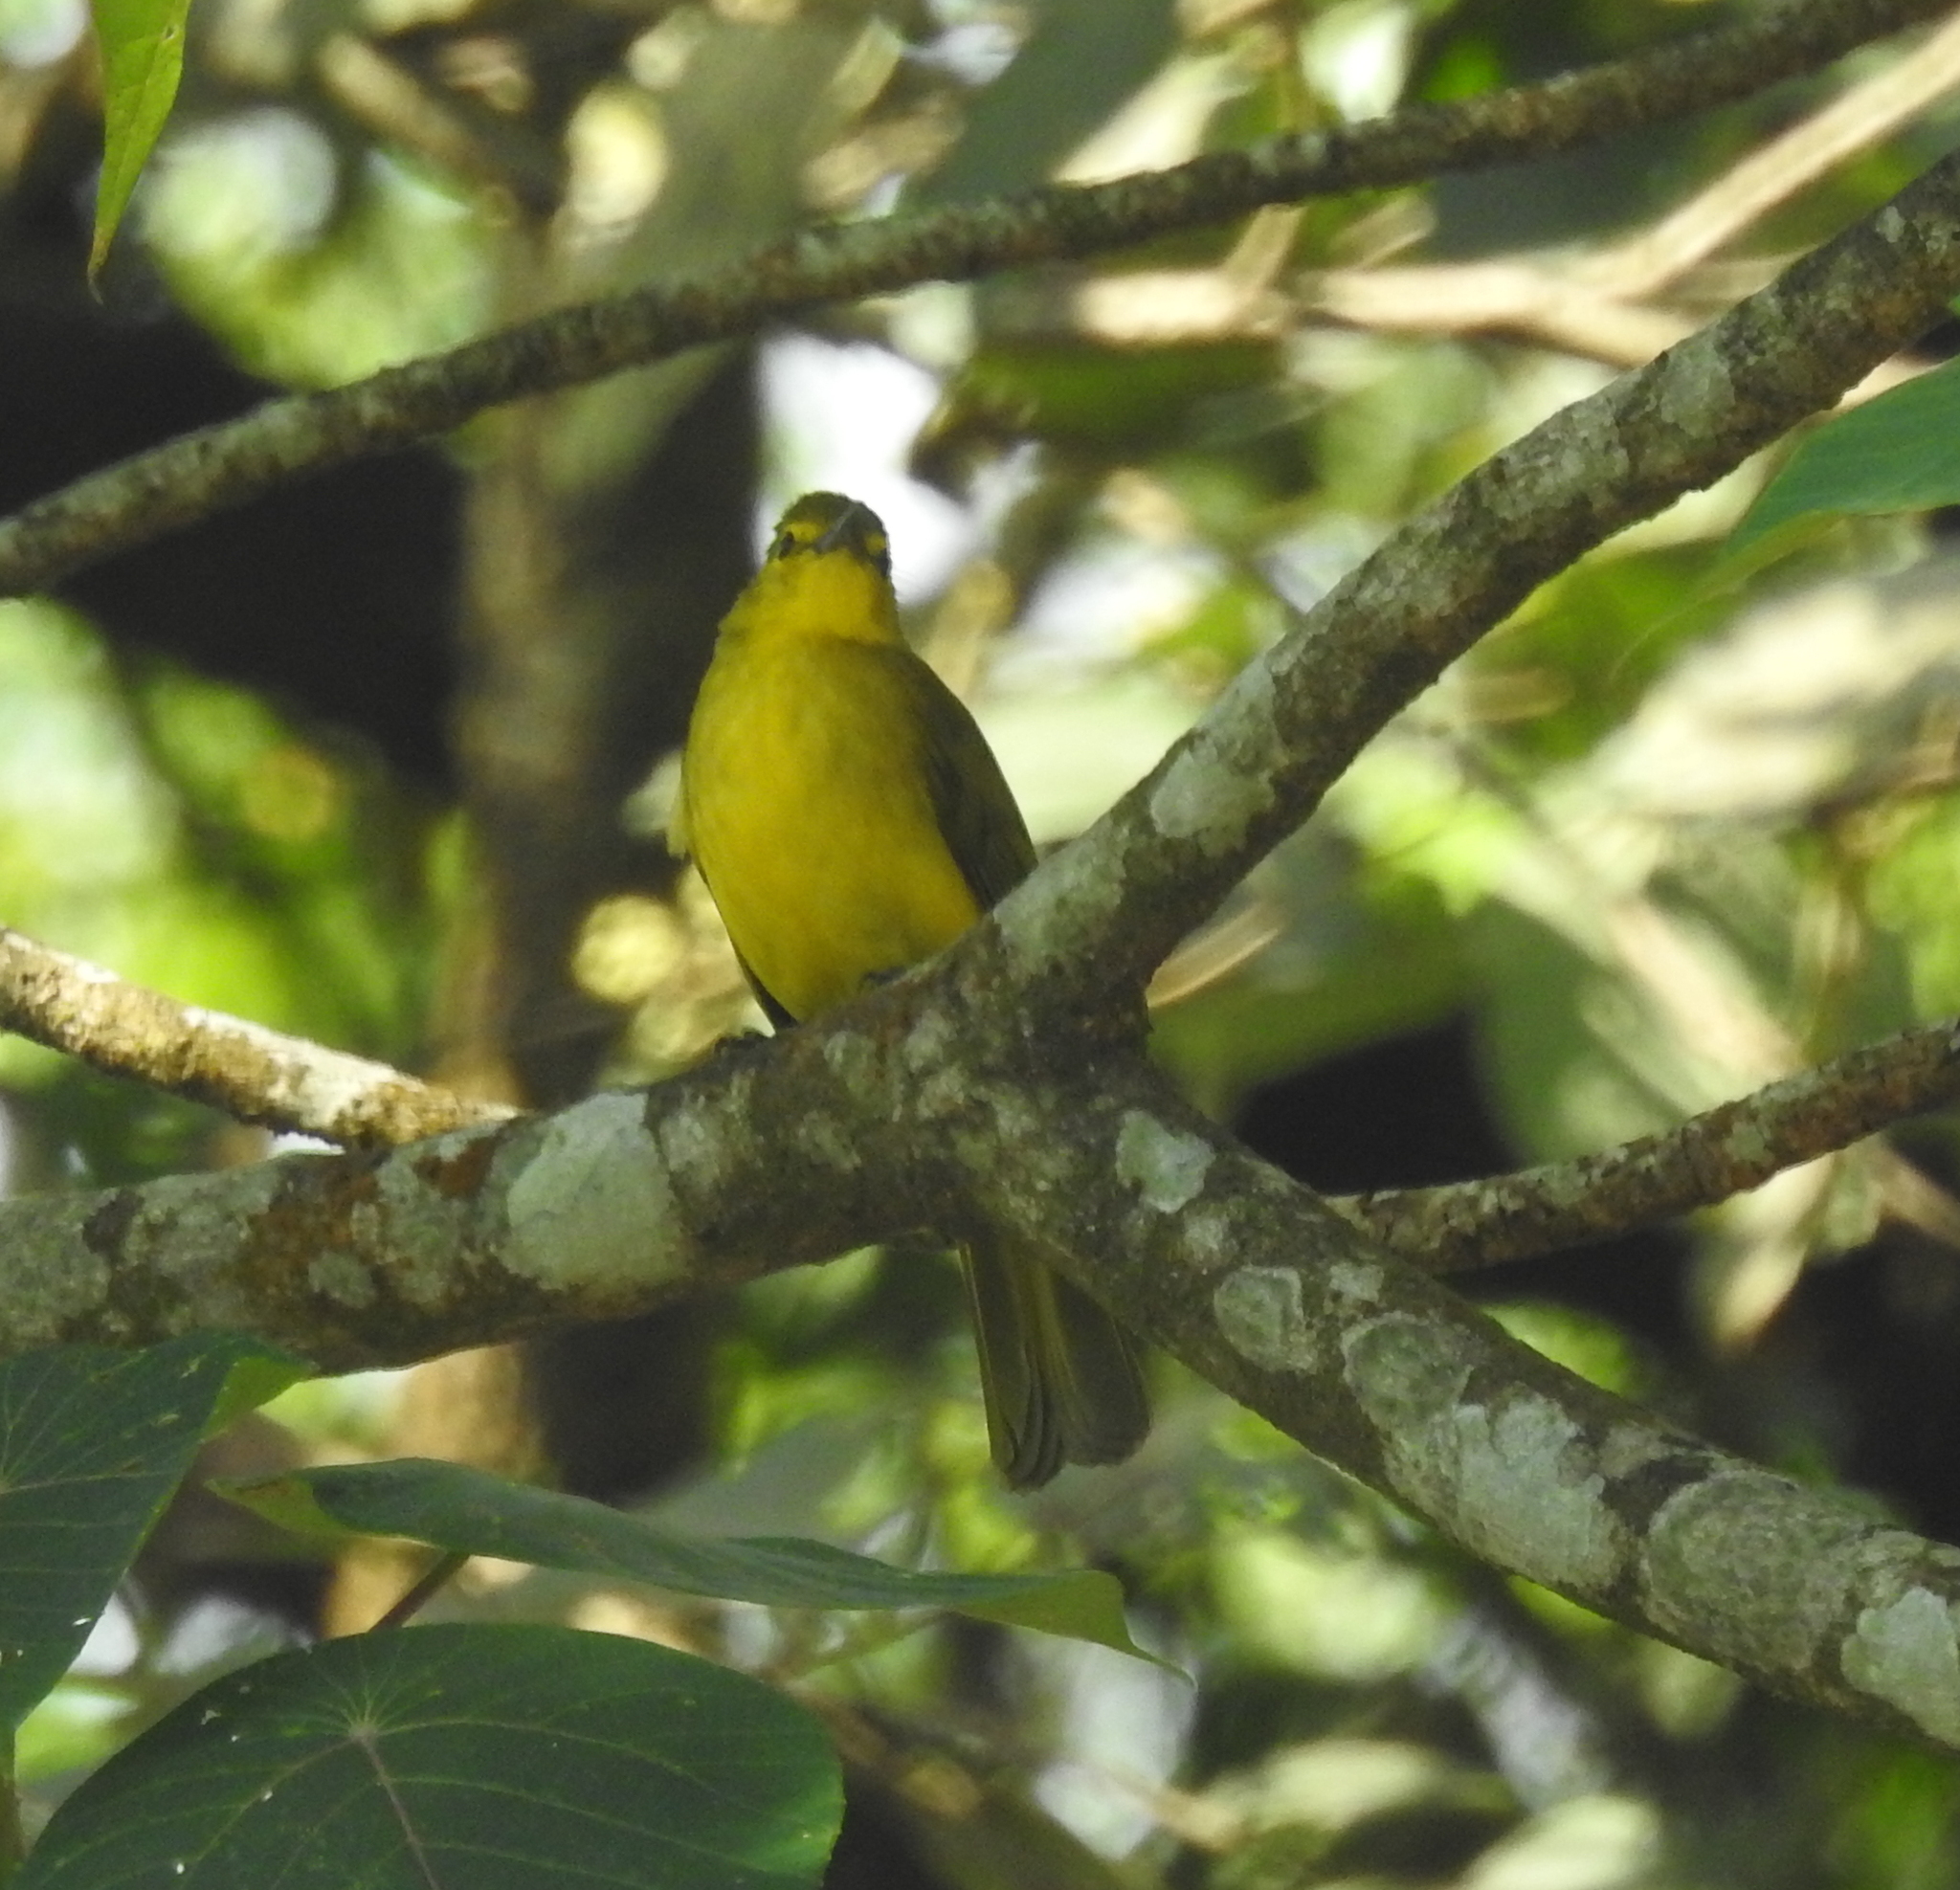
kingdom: Animalia
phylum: Chordata
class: Aves
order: Passeriformes
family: Pycnonotidae
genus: Acritillas
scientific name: Acritillas indica
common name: Yellow-browed bulbul
